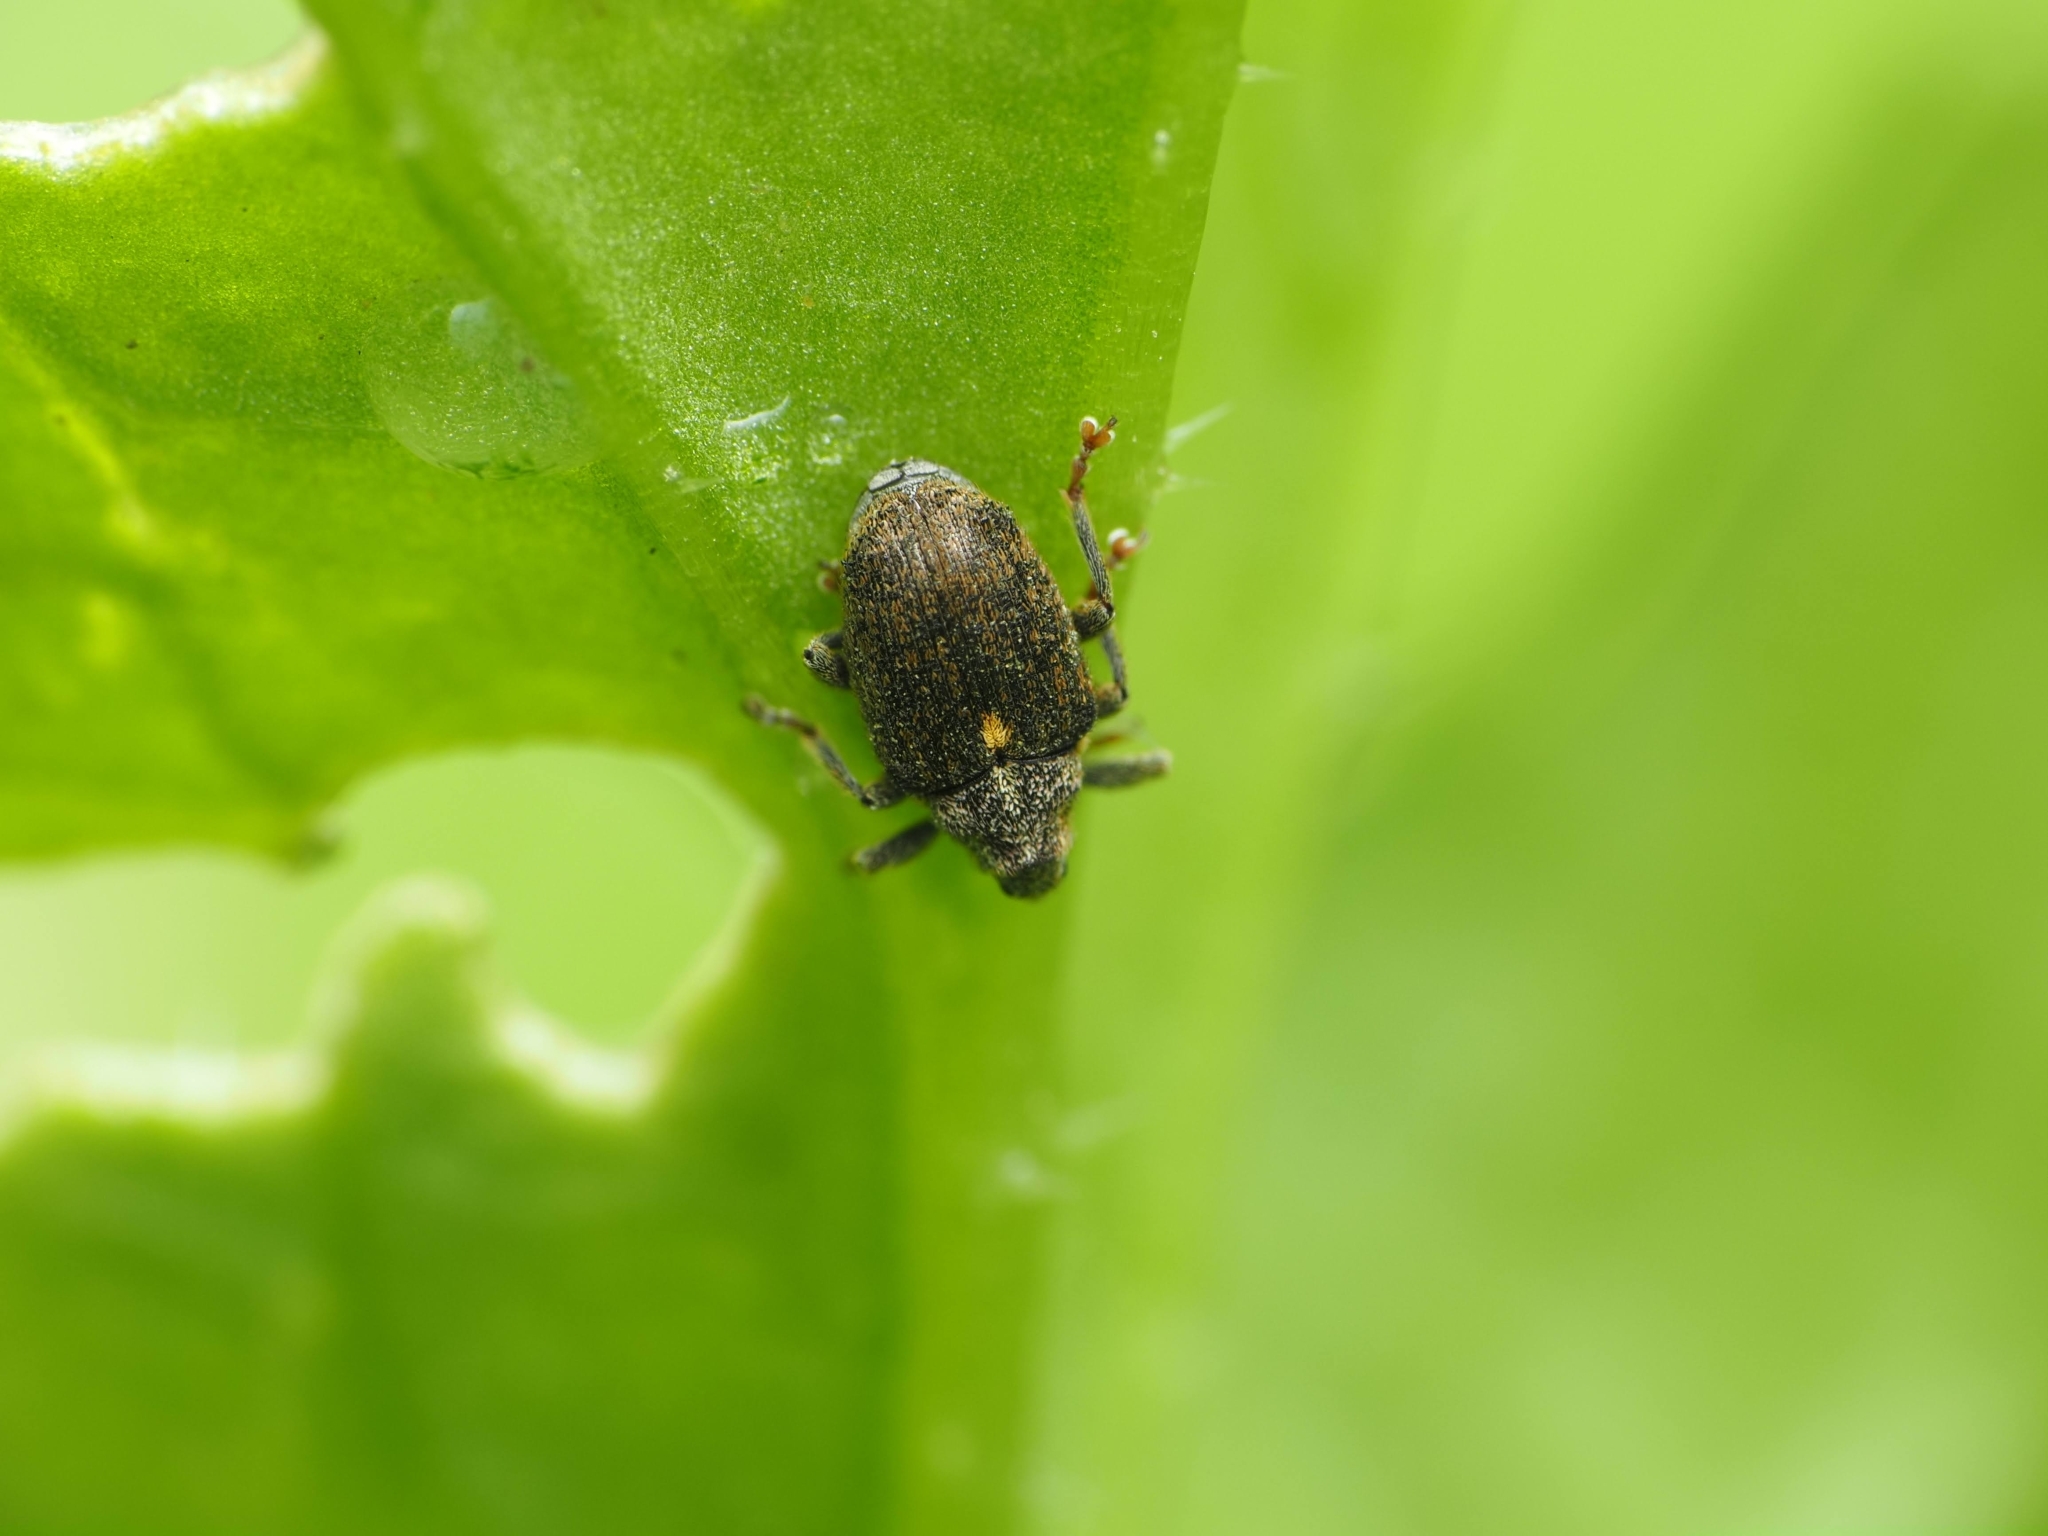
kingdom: Animalia
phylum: Arthropoda
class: Insecta
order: Coleoptera
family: Curculionidae
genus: Ceutorhynchus
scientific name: Ceutorhynchus pallidactylus
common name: Cabbage stem weavil
